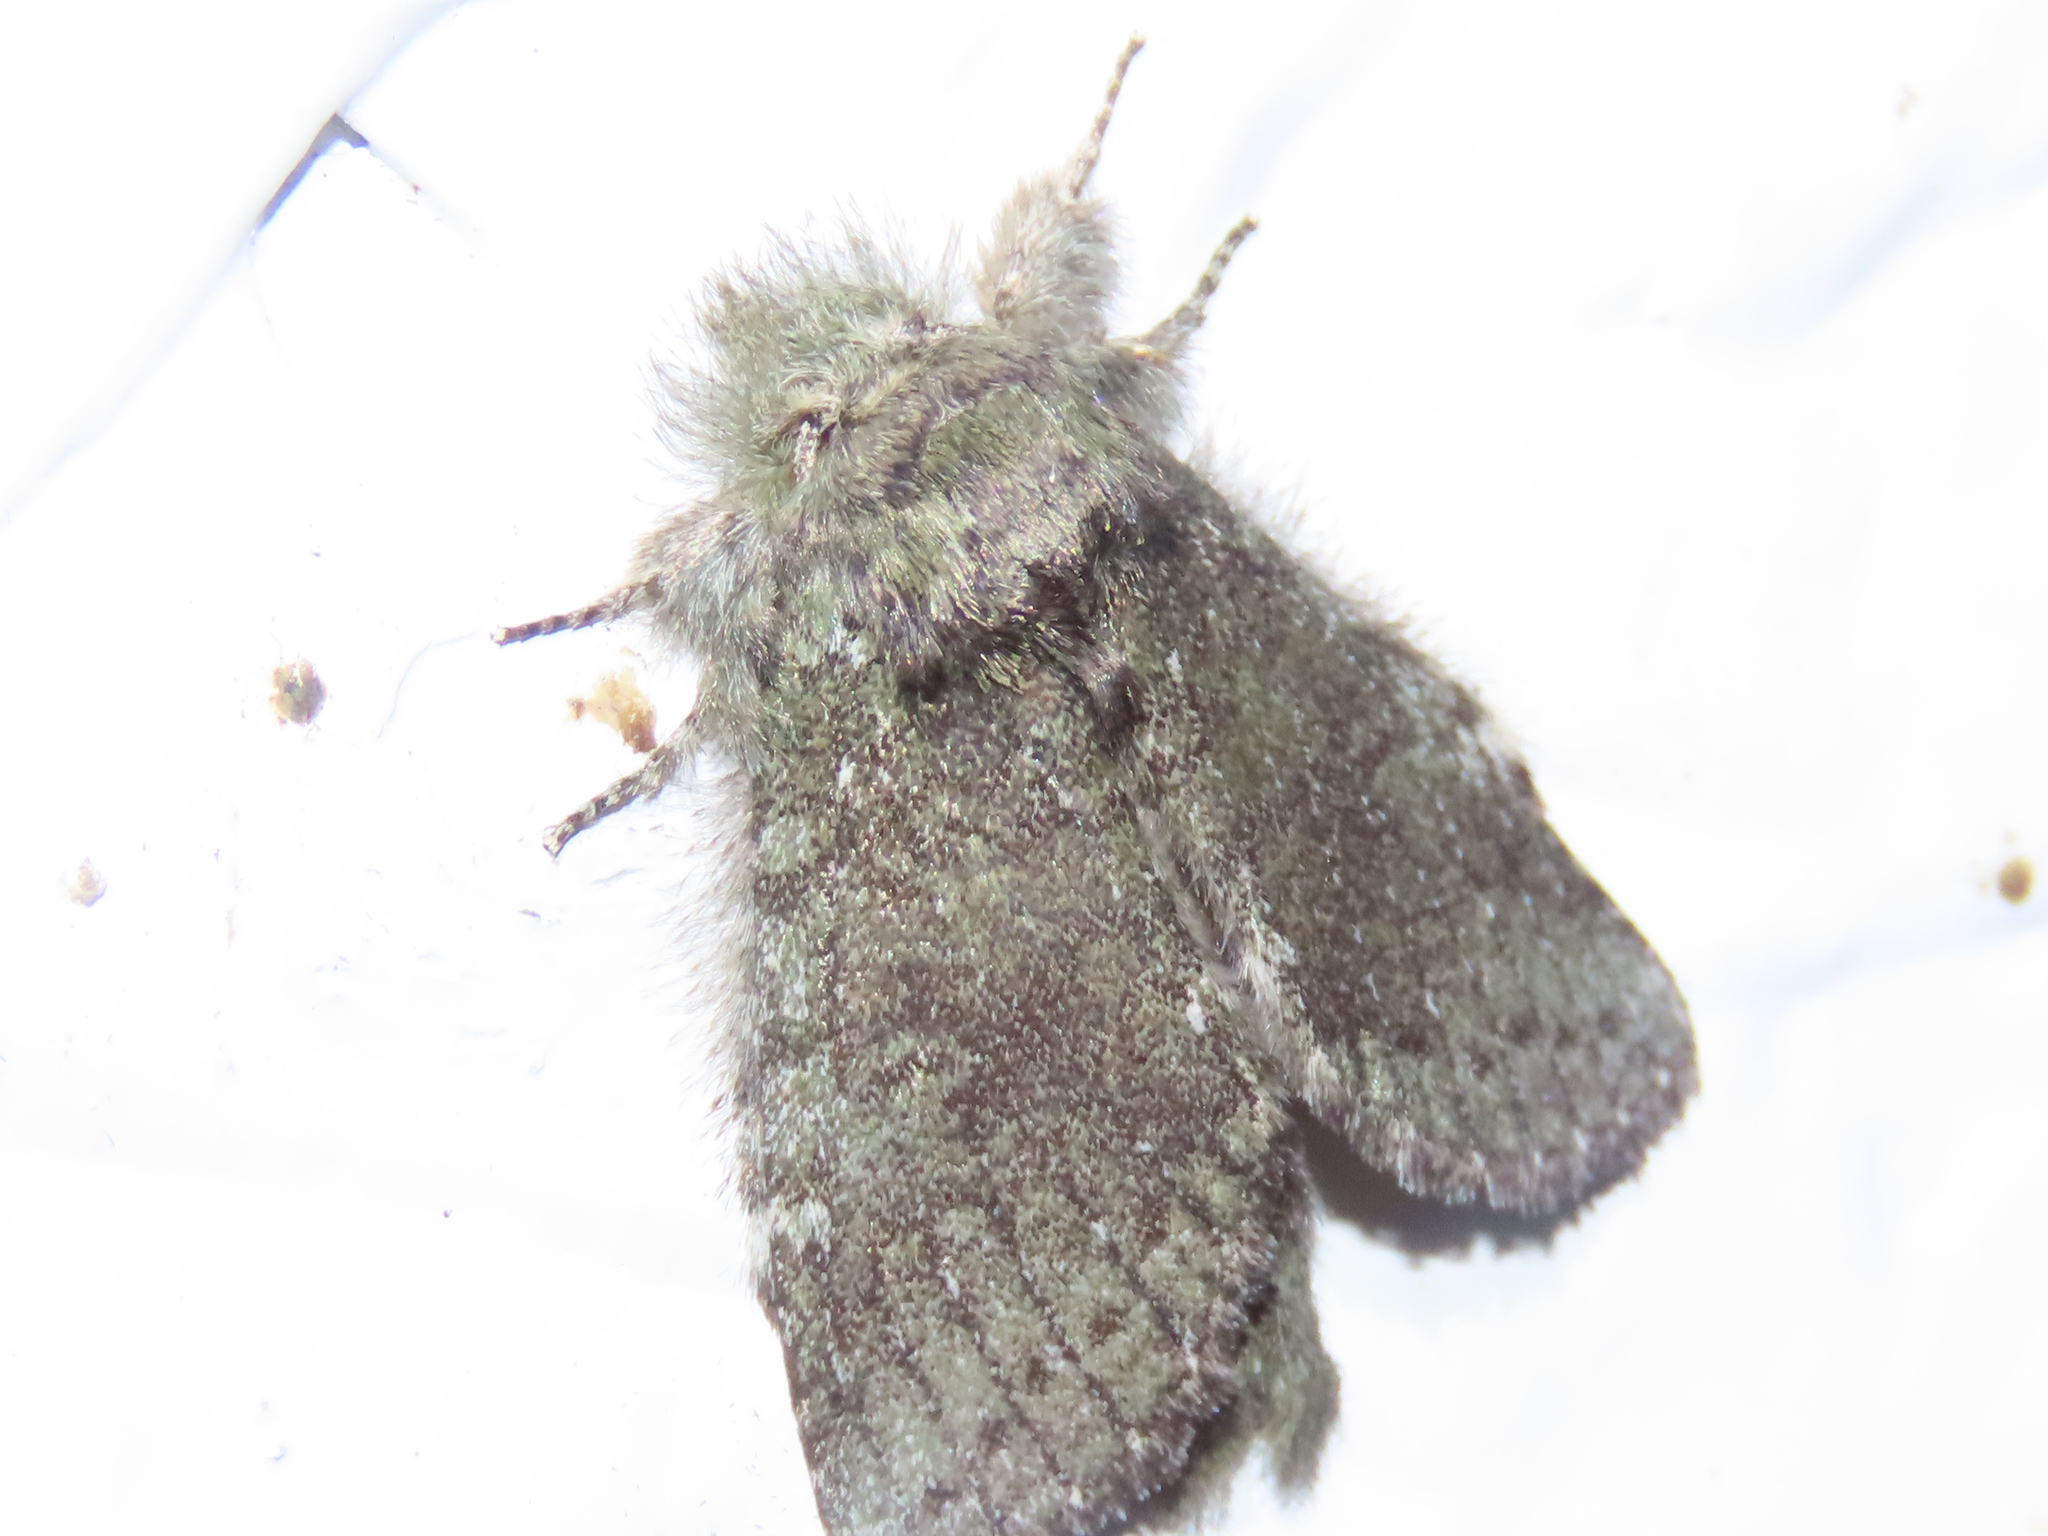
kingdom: Animalia
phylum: Arthropoda
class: Insecta
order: Lepidoptera
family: Notodontidae
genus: Disphragis
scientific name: Disphragis Cecrita guttivitta
